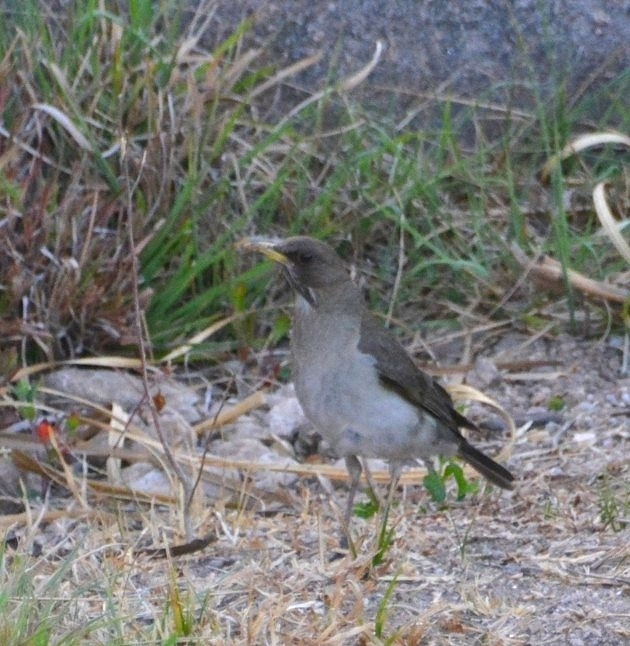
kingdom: Animalia
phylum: Chordata
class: Aves
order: Passeriformes
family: Turdidae
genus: Turdus
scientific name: Turdus amaurochalinus
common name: Creamy-bellied thrush
